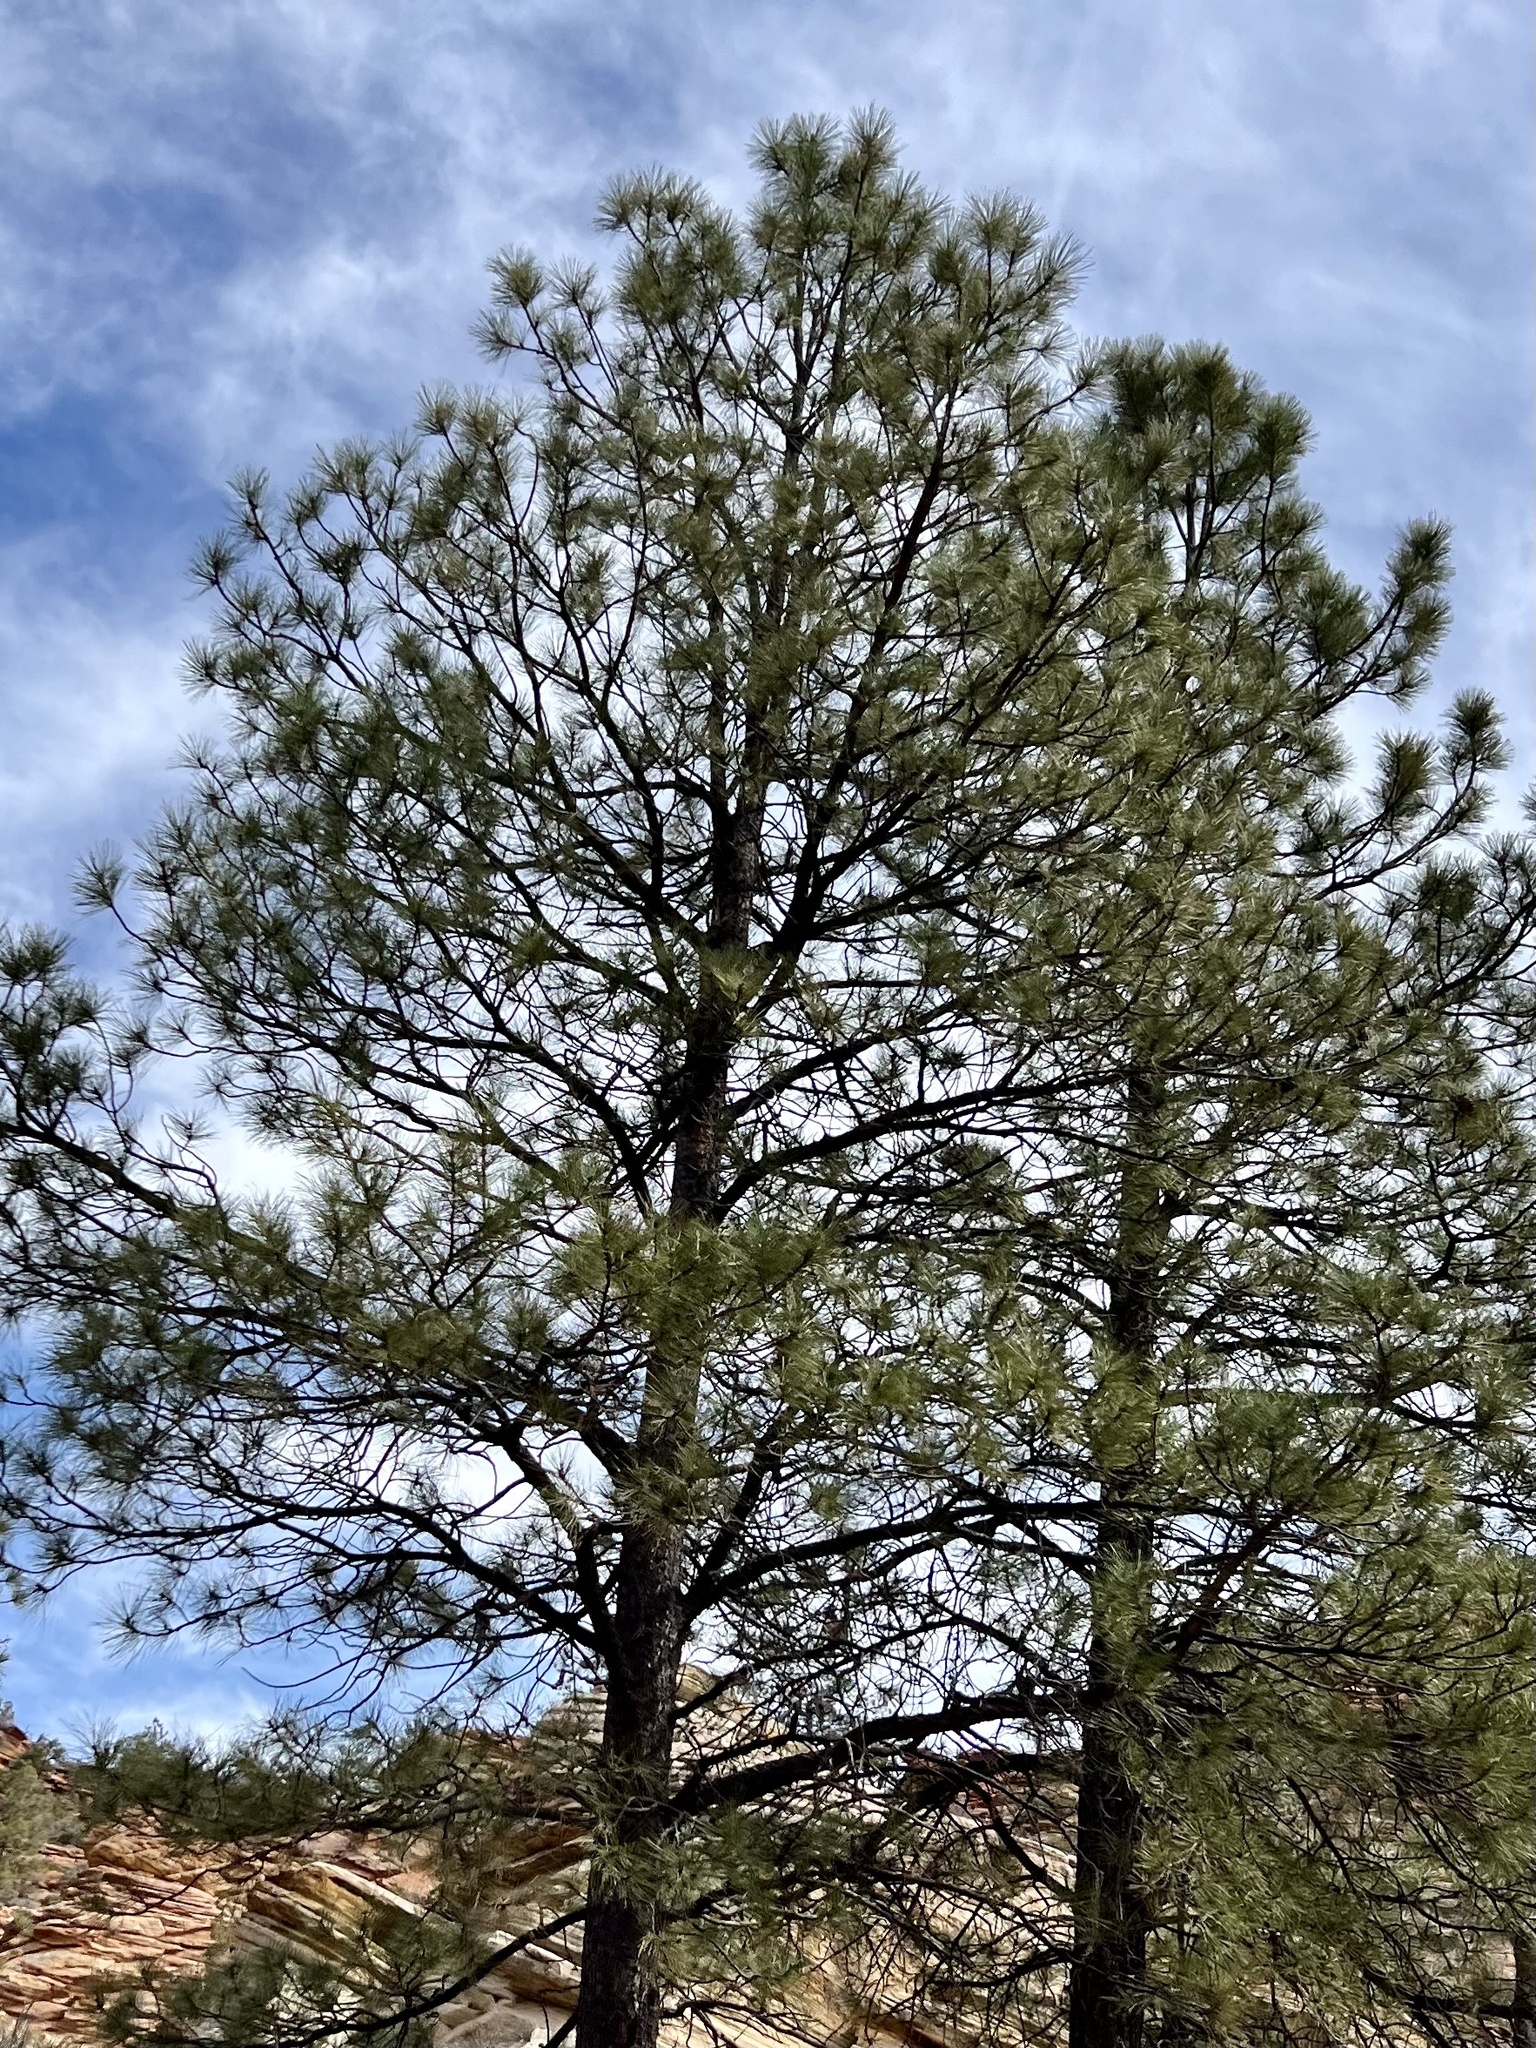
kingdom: Plantae
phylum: Tracheophyta
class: Pinopsida
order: Pinales
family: Pinaceae
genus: Pinus
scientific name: Pinus ponderosa
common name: Western yellow-pine
